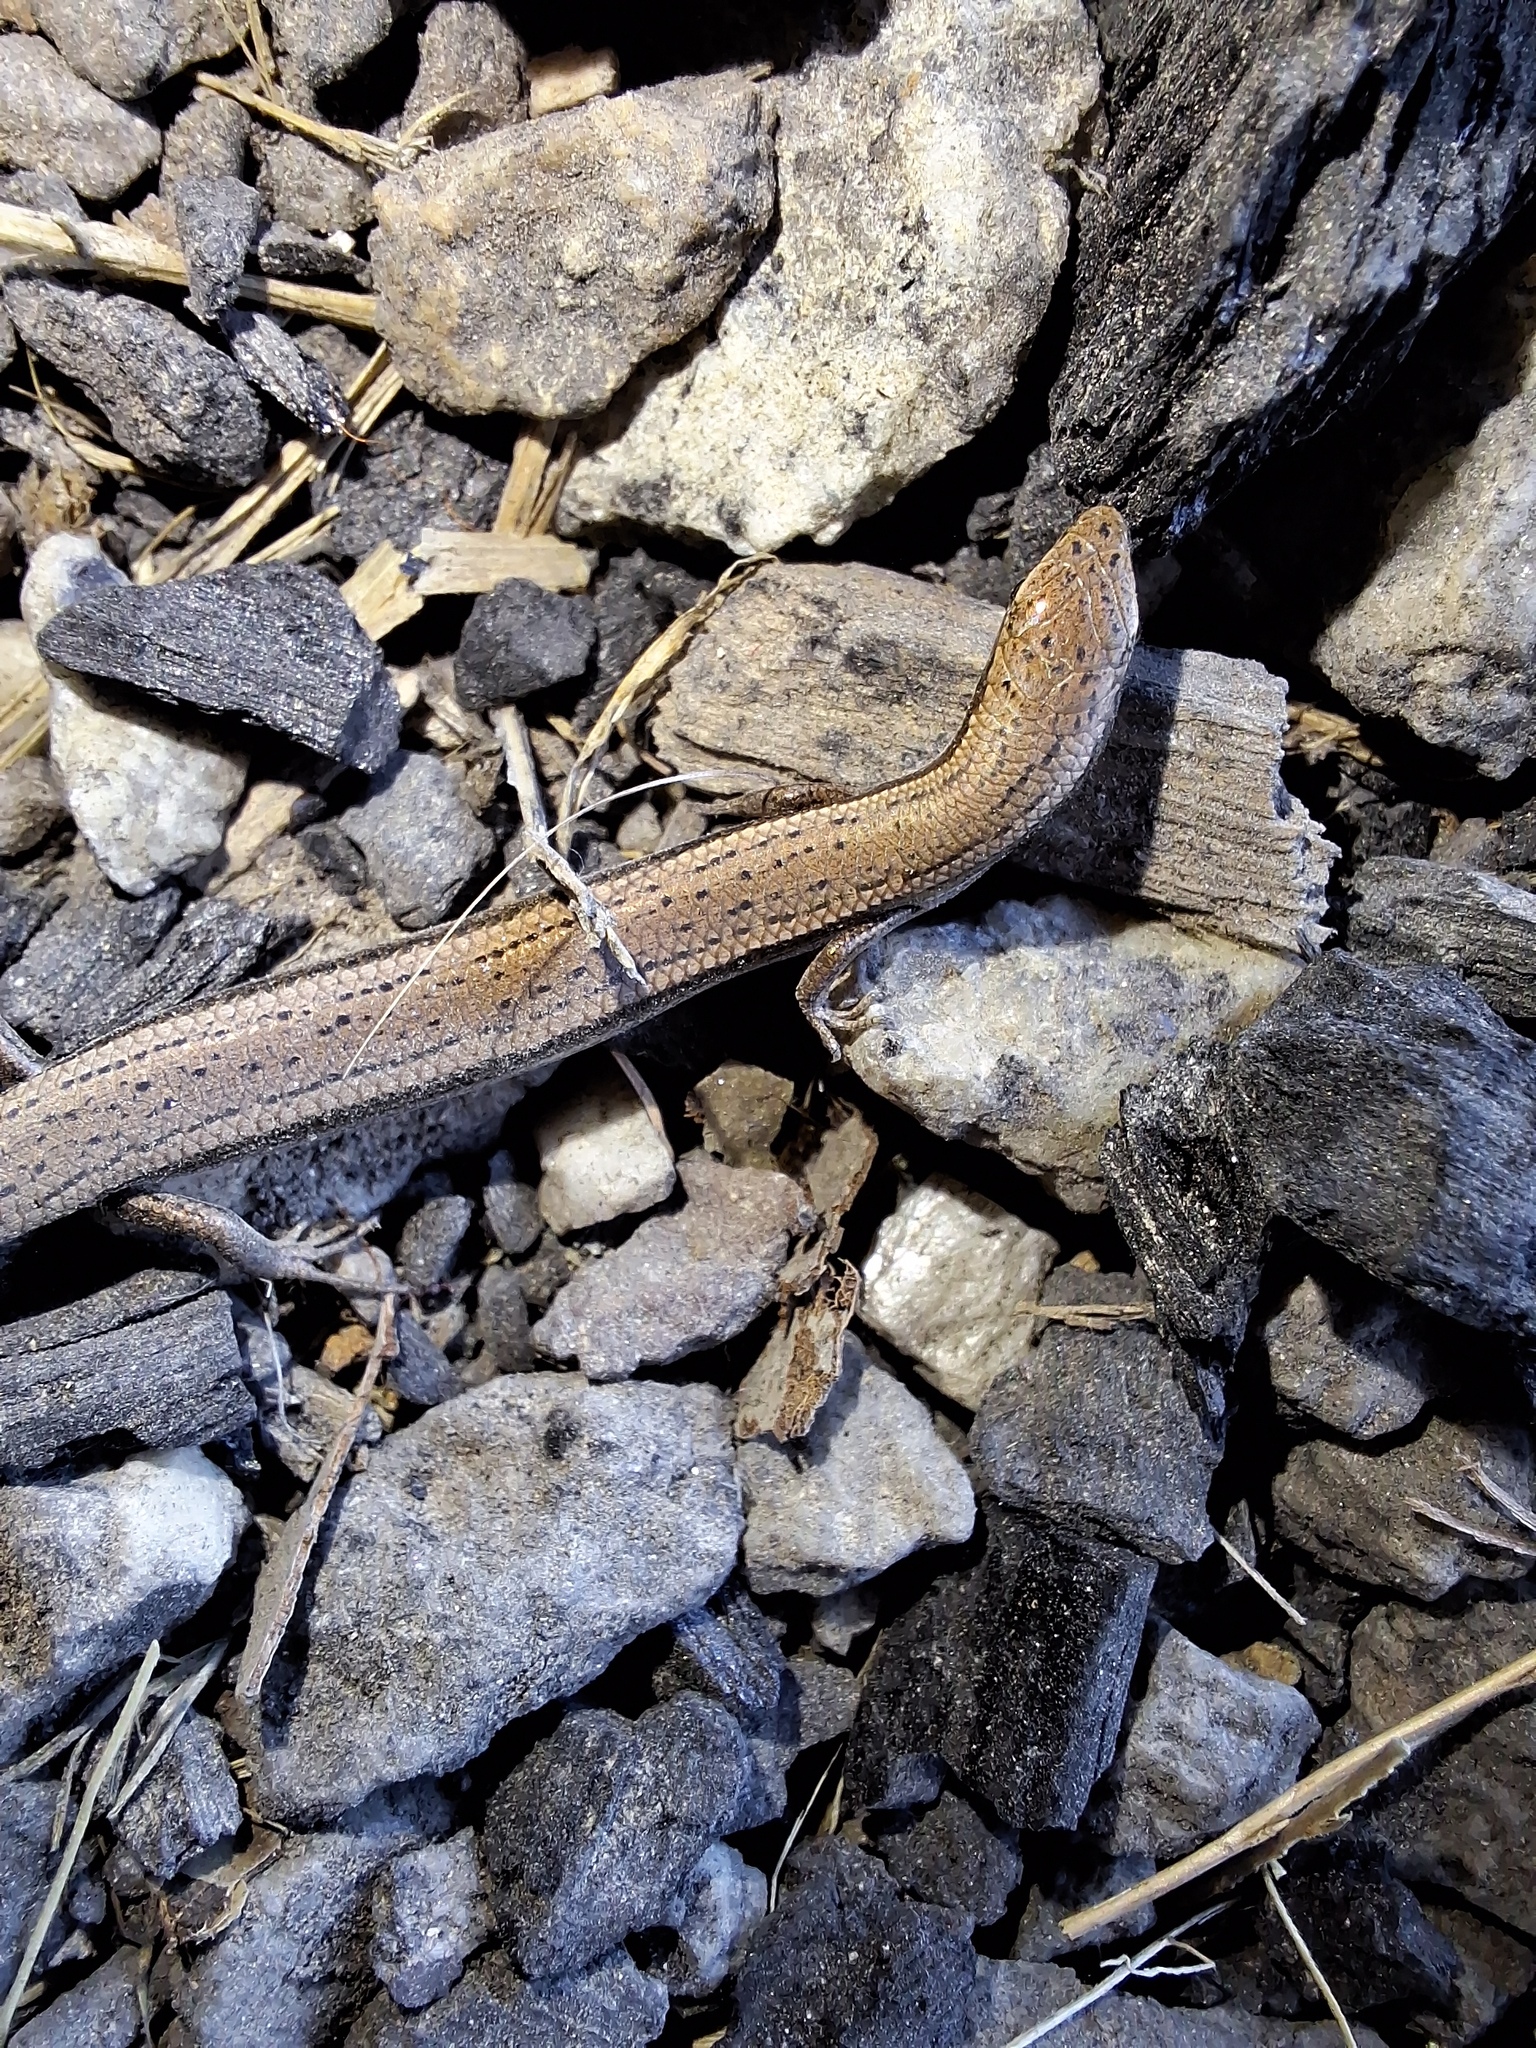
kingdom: Animalia
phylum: Chordata
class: Squamata
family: Scincidae
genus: Menetia
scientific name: Menetia greyii
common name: Common dwarf skink
